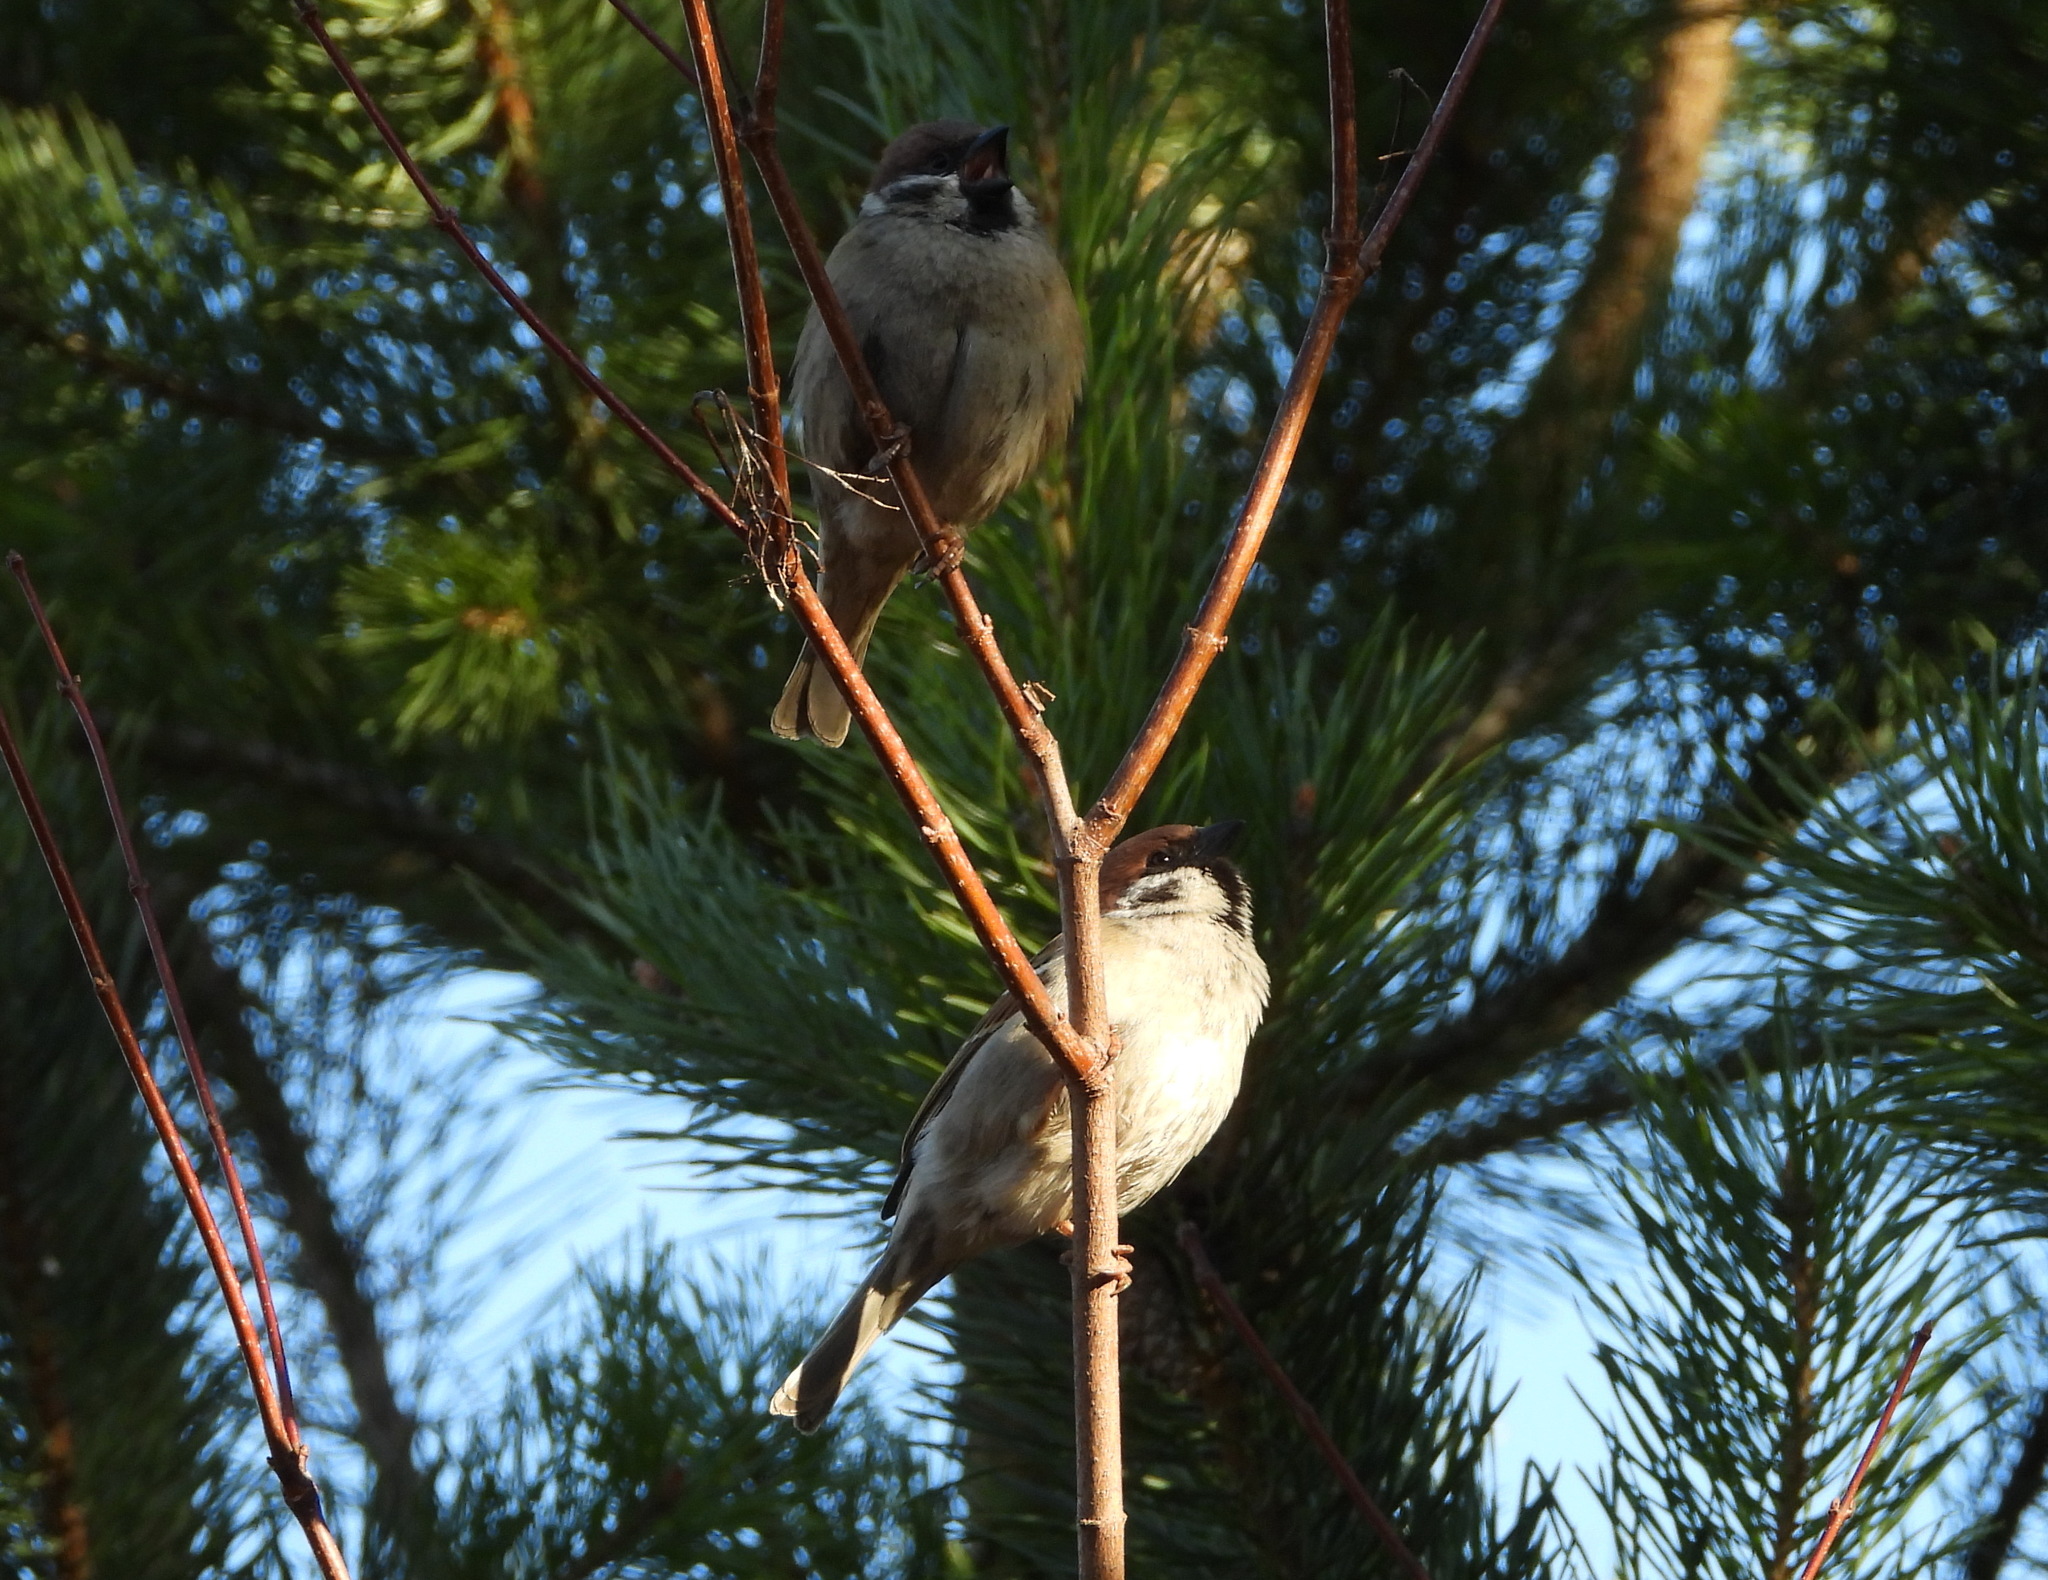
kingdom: Animalia
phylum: Chordata
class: Aves
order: Passeriformes
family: Passeridae
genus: Passer
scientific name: Passer montanus
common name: Eurasian tree sparrow
